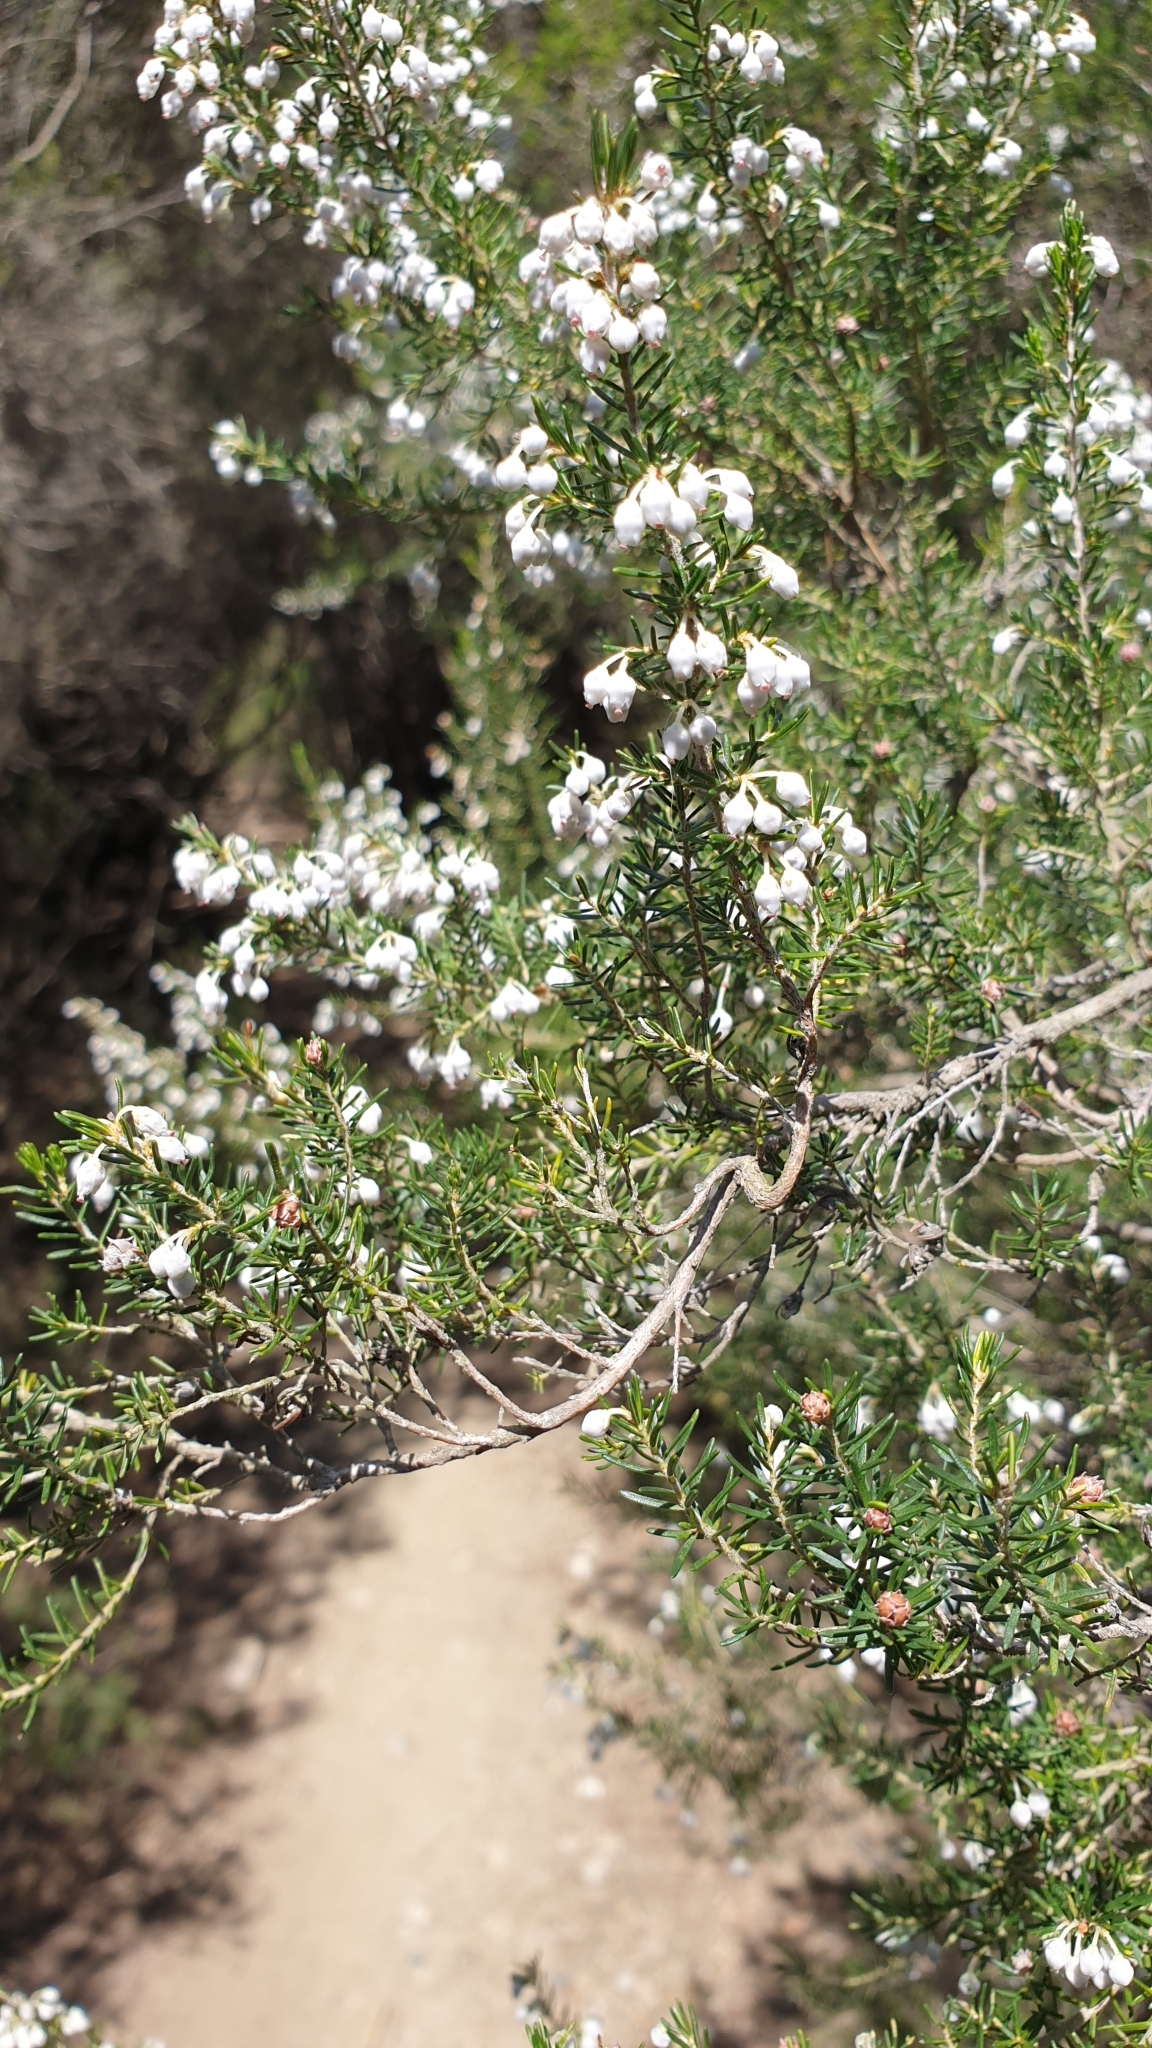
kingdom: Plantae
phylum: Tracheophyta
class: Magnoliopsida
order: Ericales
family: Ericaceae
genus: Erica
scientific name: Erica arborea
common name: Tree heath
